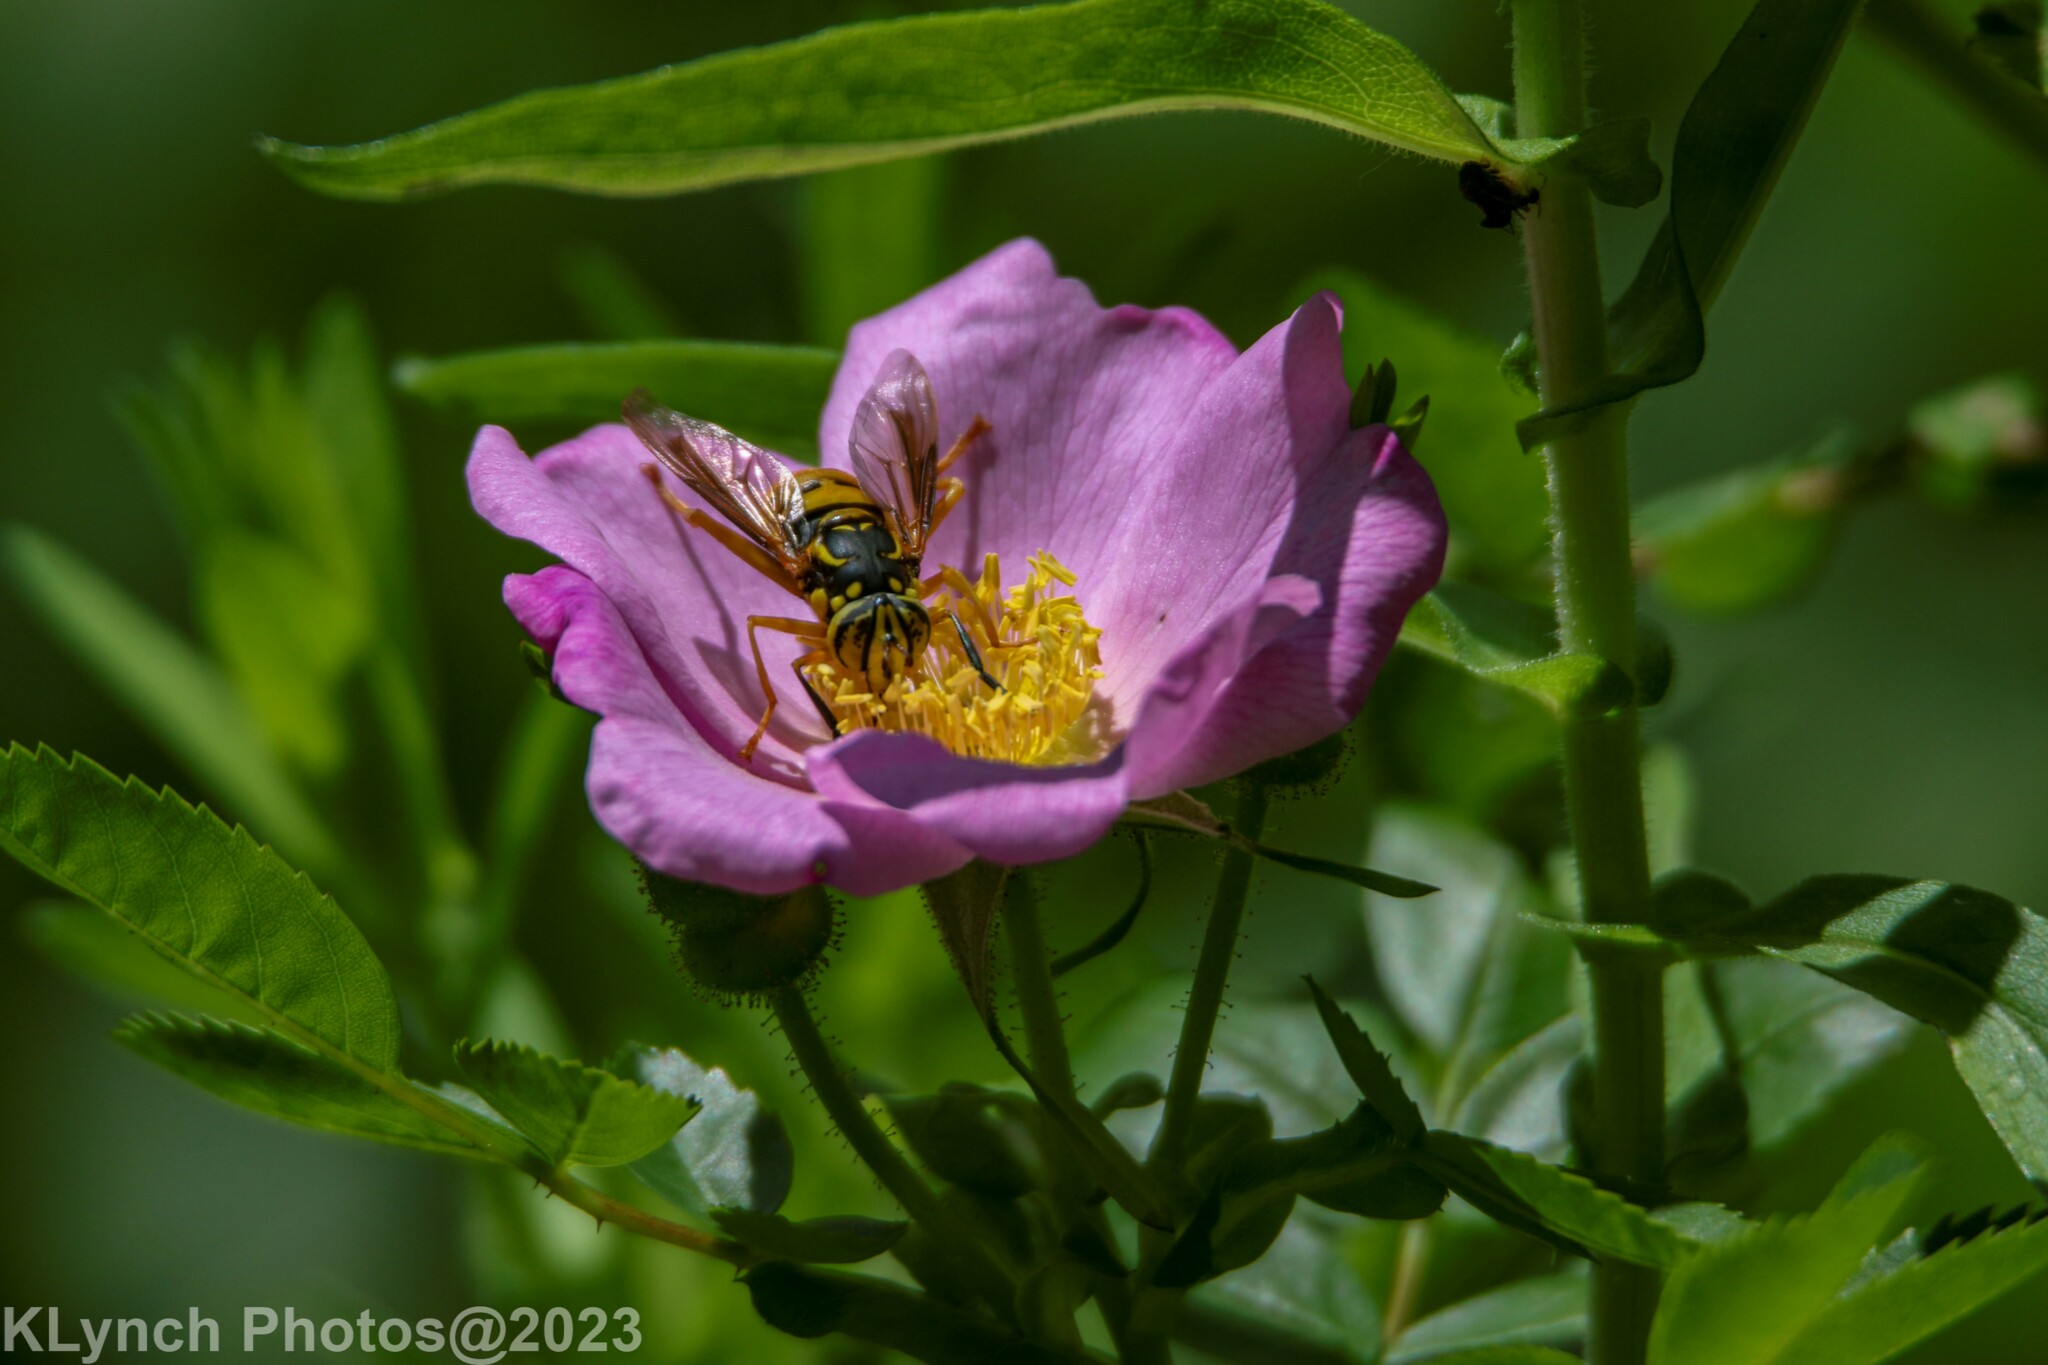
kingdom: Animalia
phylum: Arthropoda
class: Insecta
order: Diptera
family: Syrphidae
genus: Spilomyia
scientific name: Spilomyia alcimus
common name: Broad-banded hornet fly
